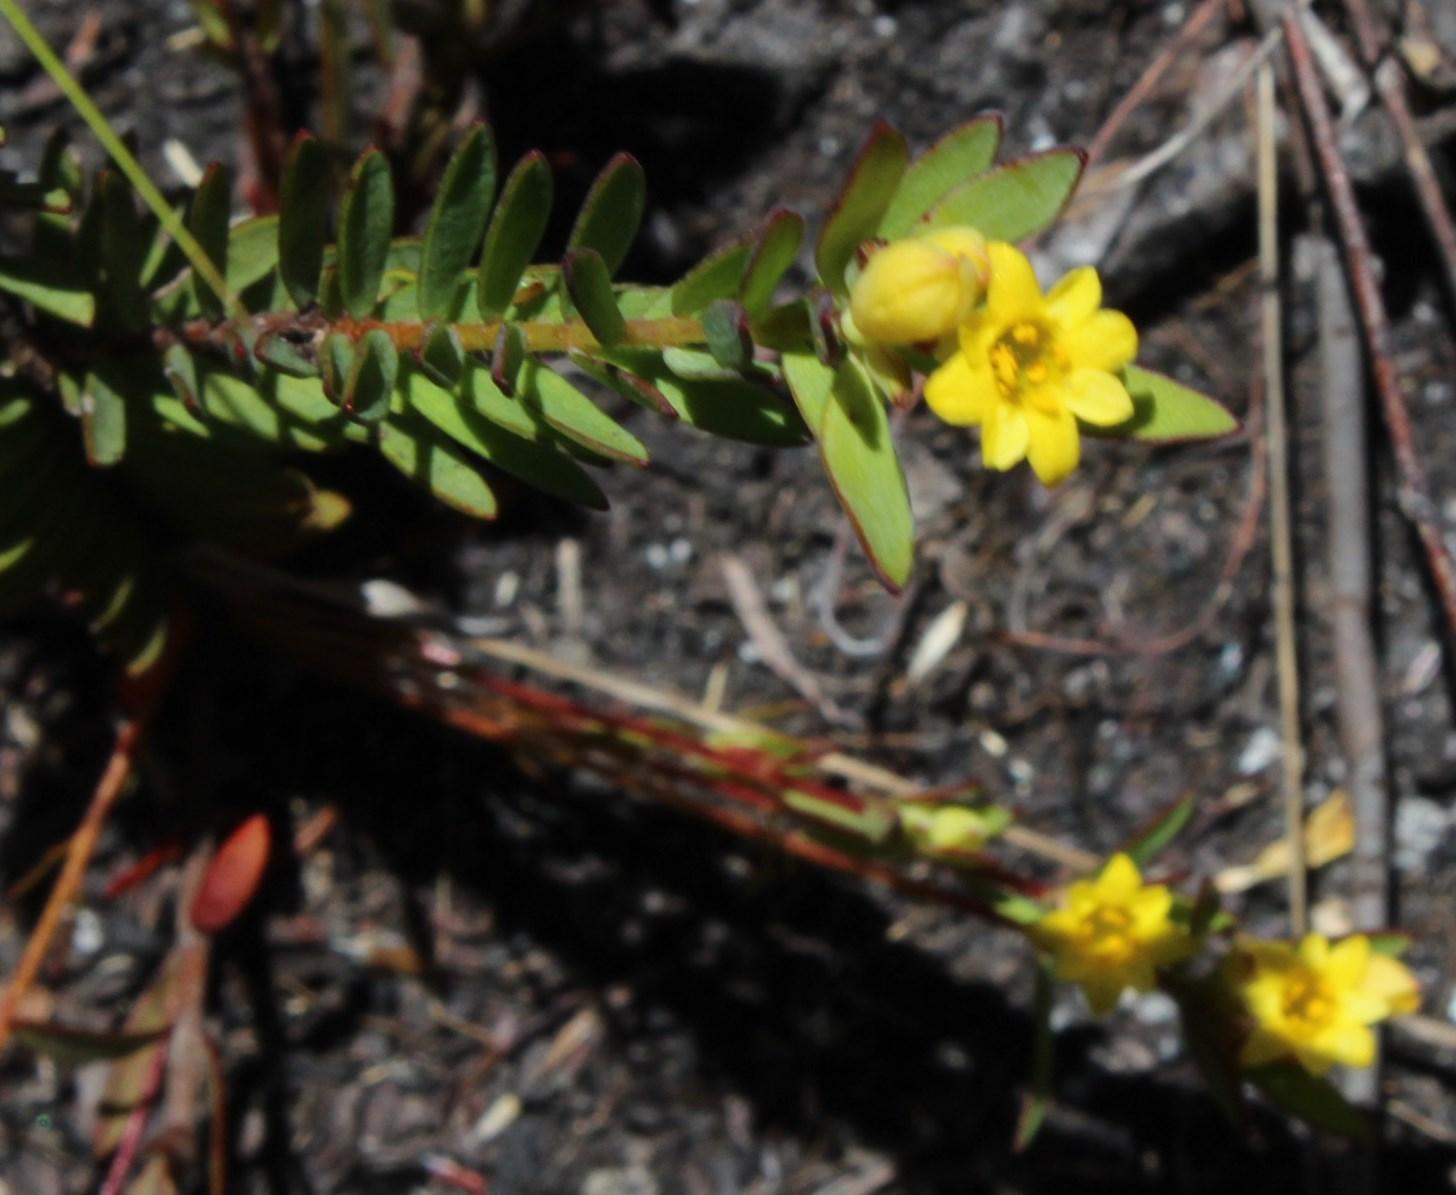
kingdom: Plantae
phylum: Tracheophyta
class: Magnoliopsida
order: Malvales
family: Thymelaeaceae
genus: Gnidia
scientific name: Gnidia juniperifolia
